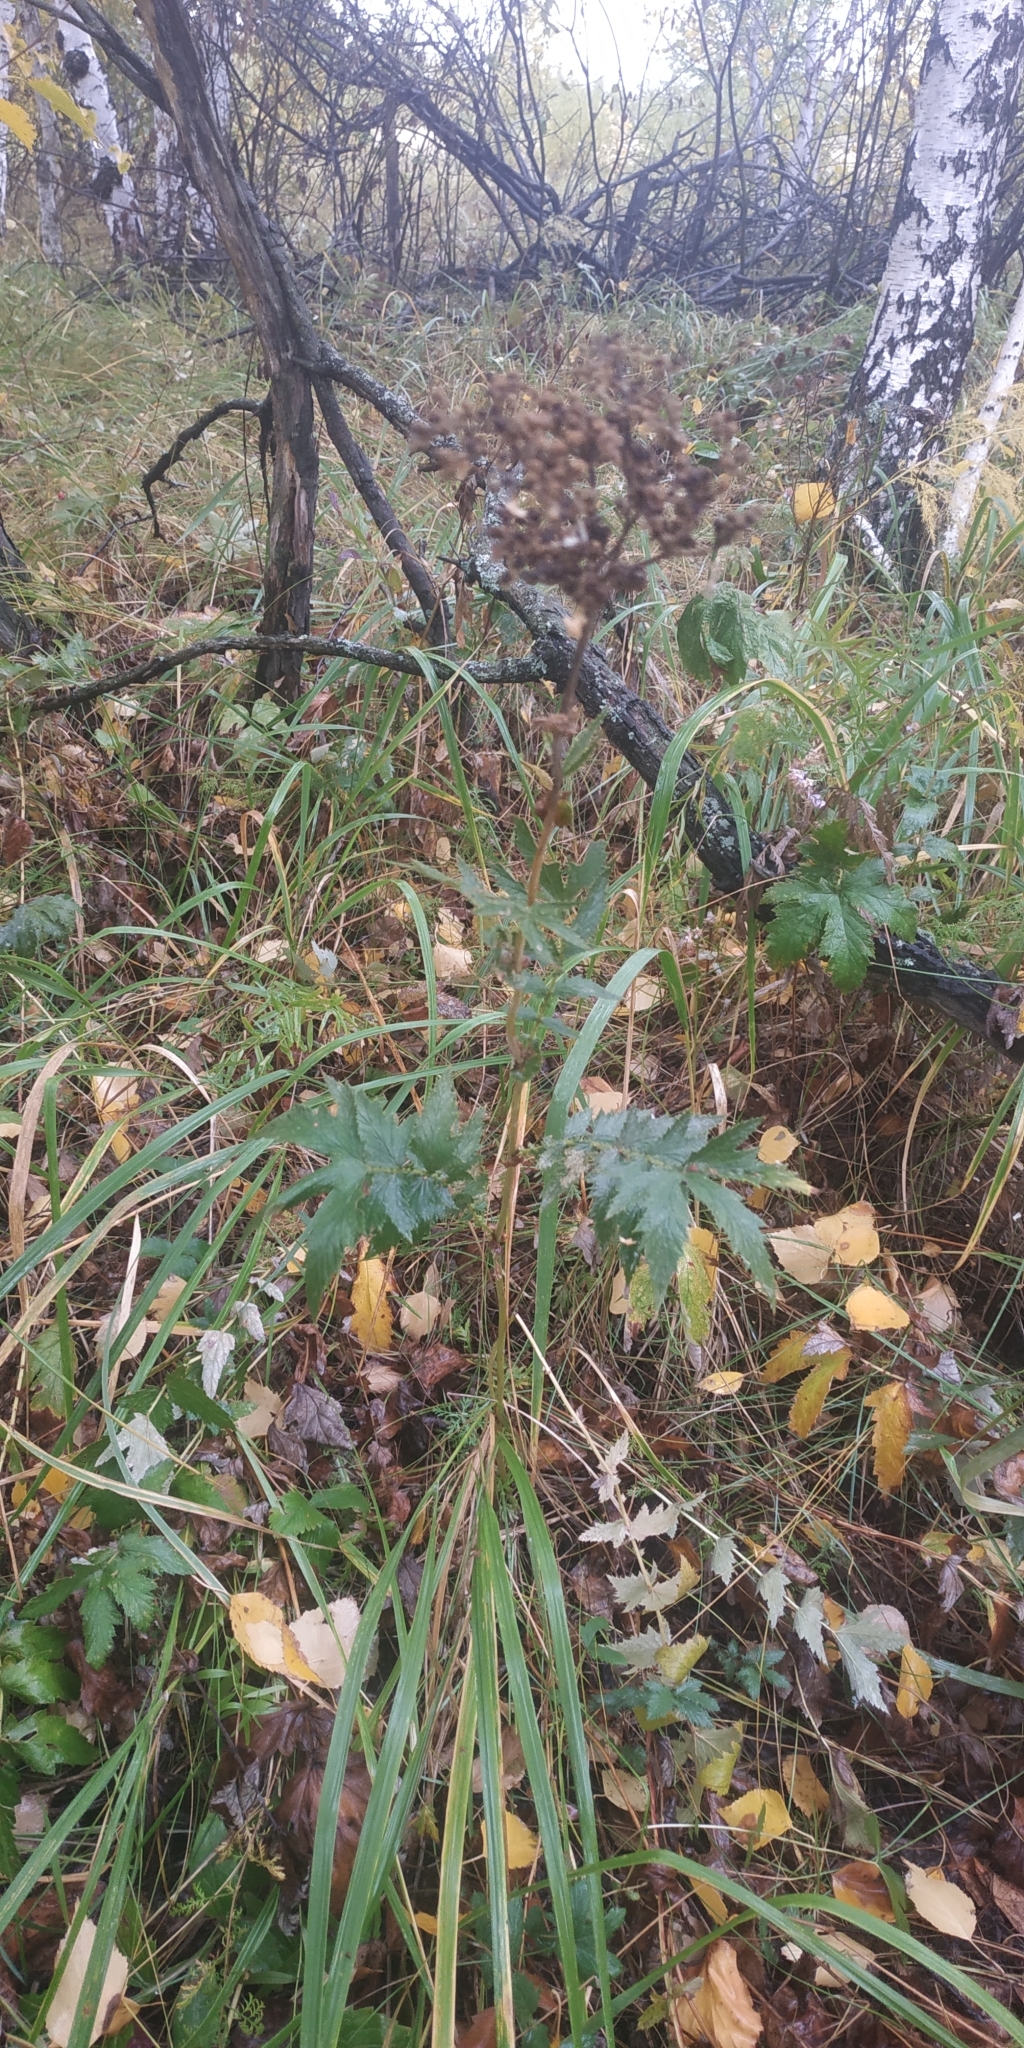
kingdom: Plantae
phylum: Tracheophyta
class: Magnoliopsida
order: Rosales
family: Rosaceae
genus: Filipendula
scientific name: Filipendula ulmaria
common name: Meadowsweet
